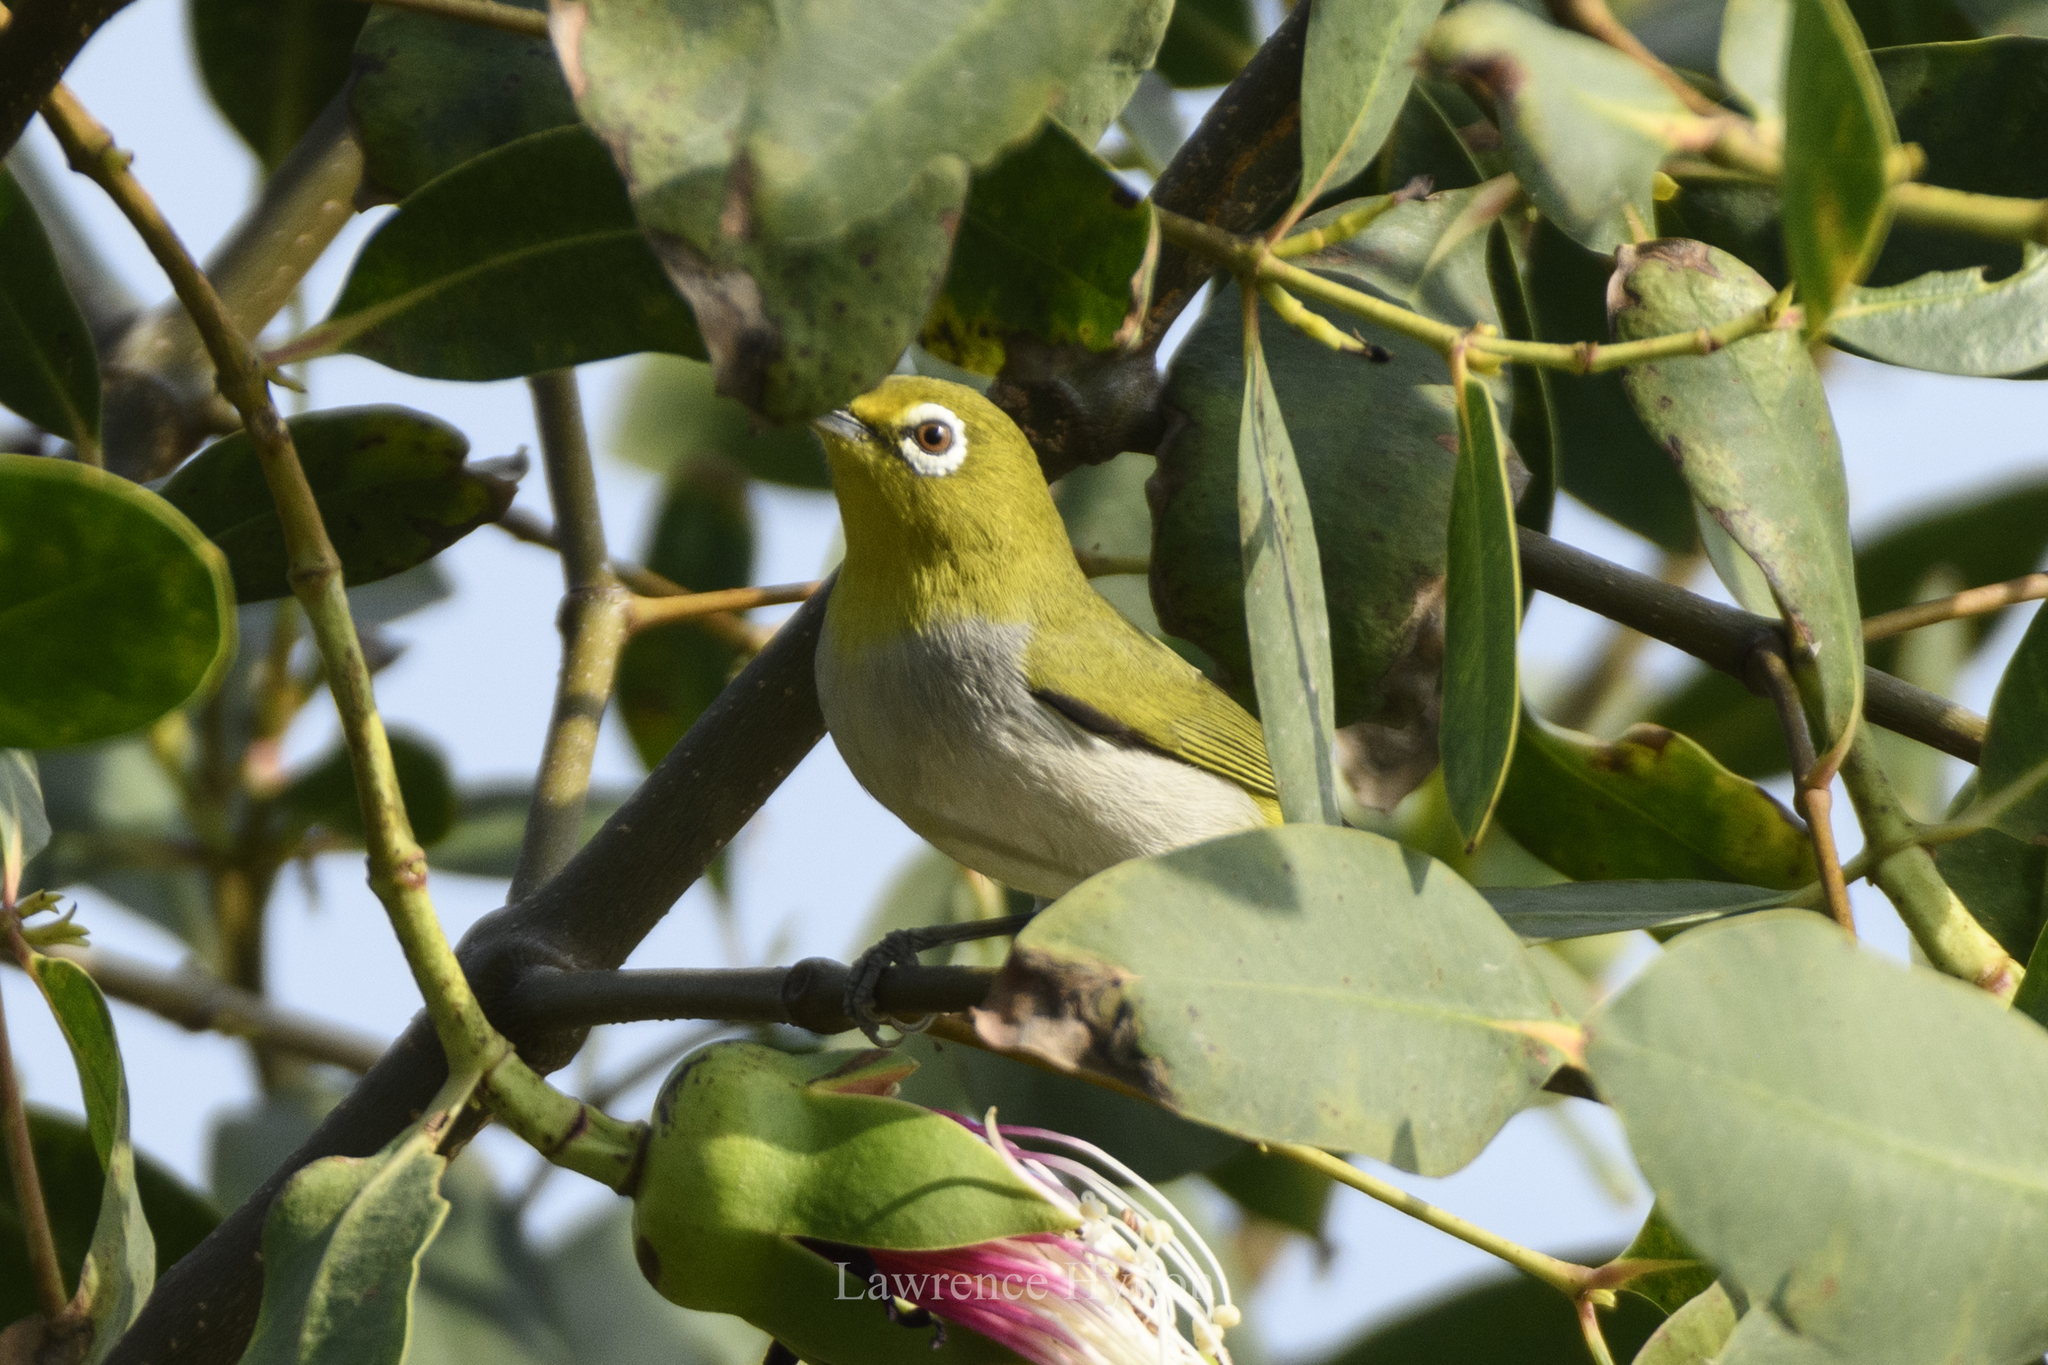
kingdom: Animalia
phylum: Chordata
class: Aves
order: Passeriformes
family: Zosteropidae
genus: Zosterops
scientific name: Zosterops simplex
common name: Swinhoe's white-eye
